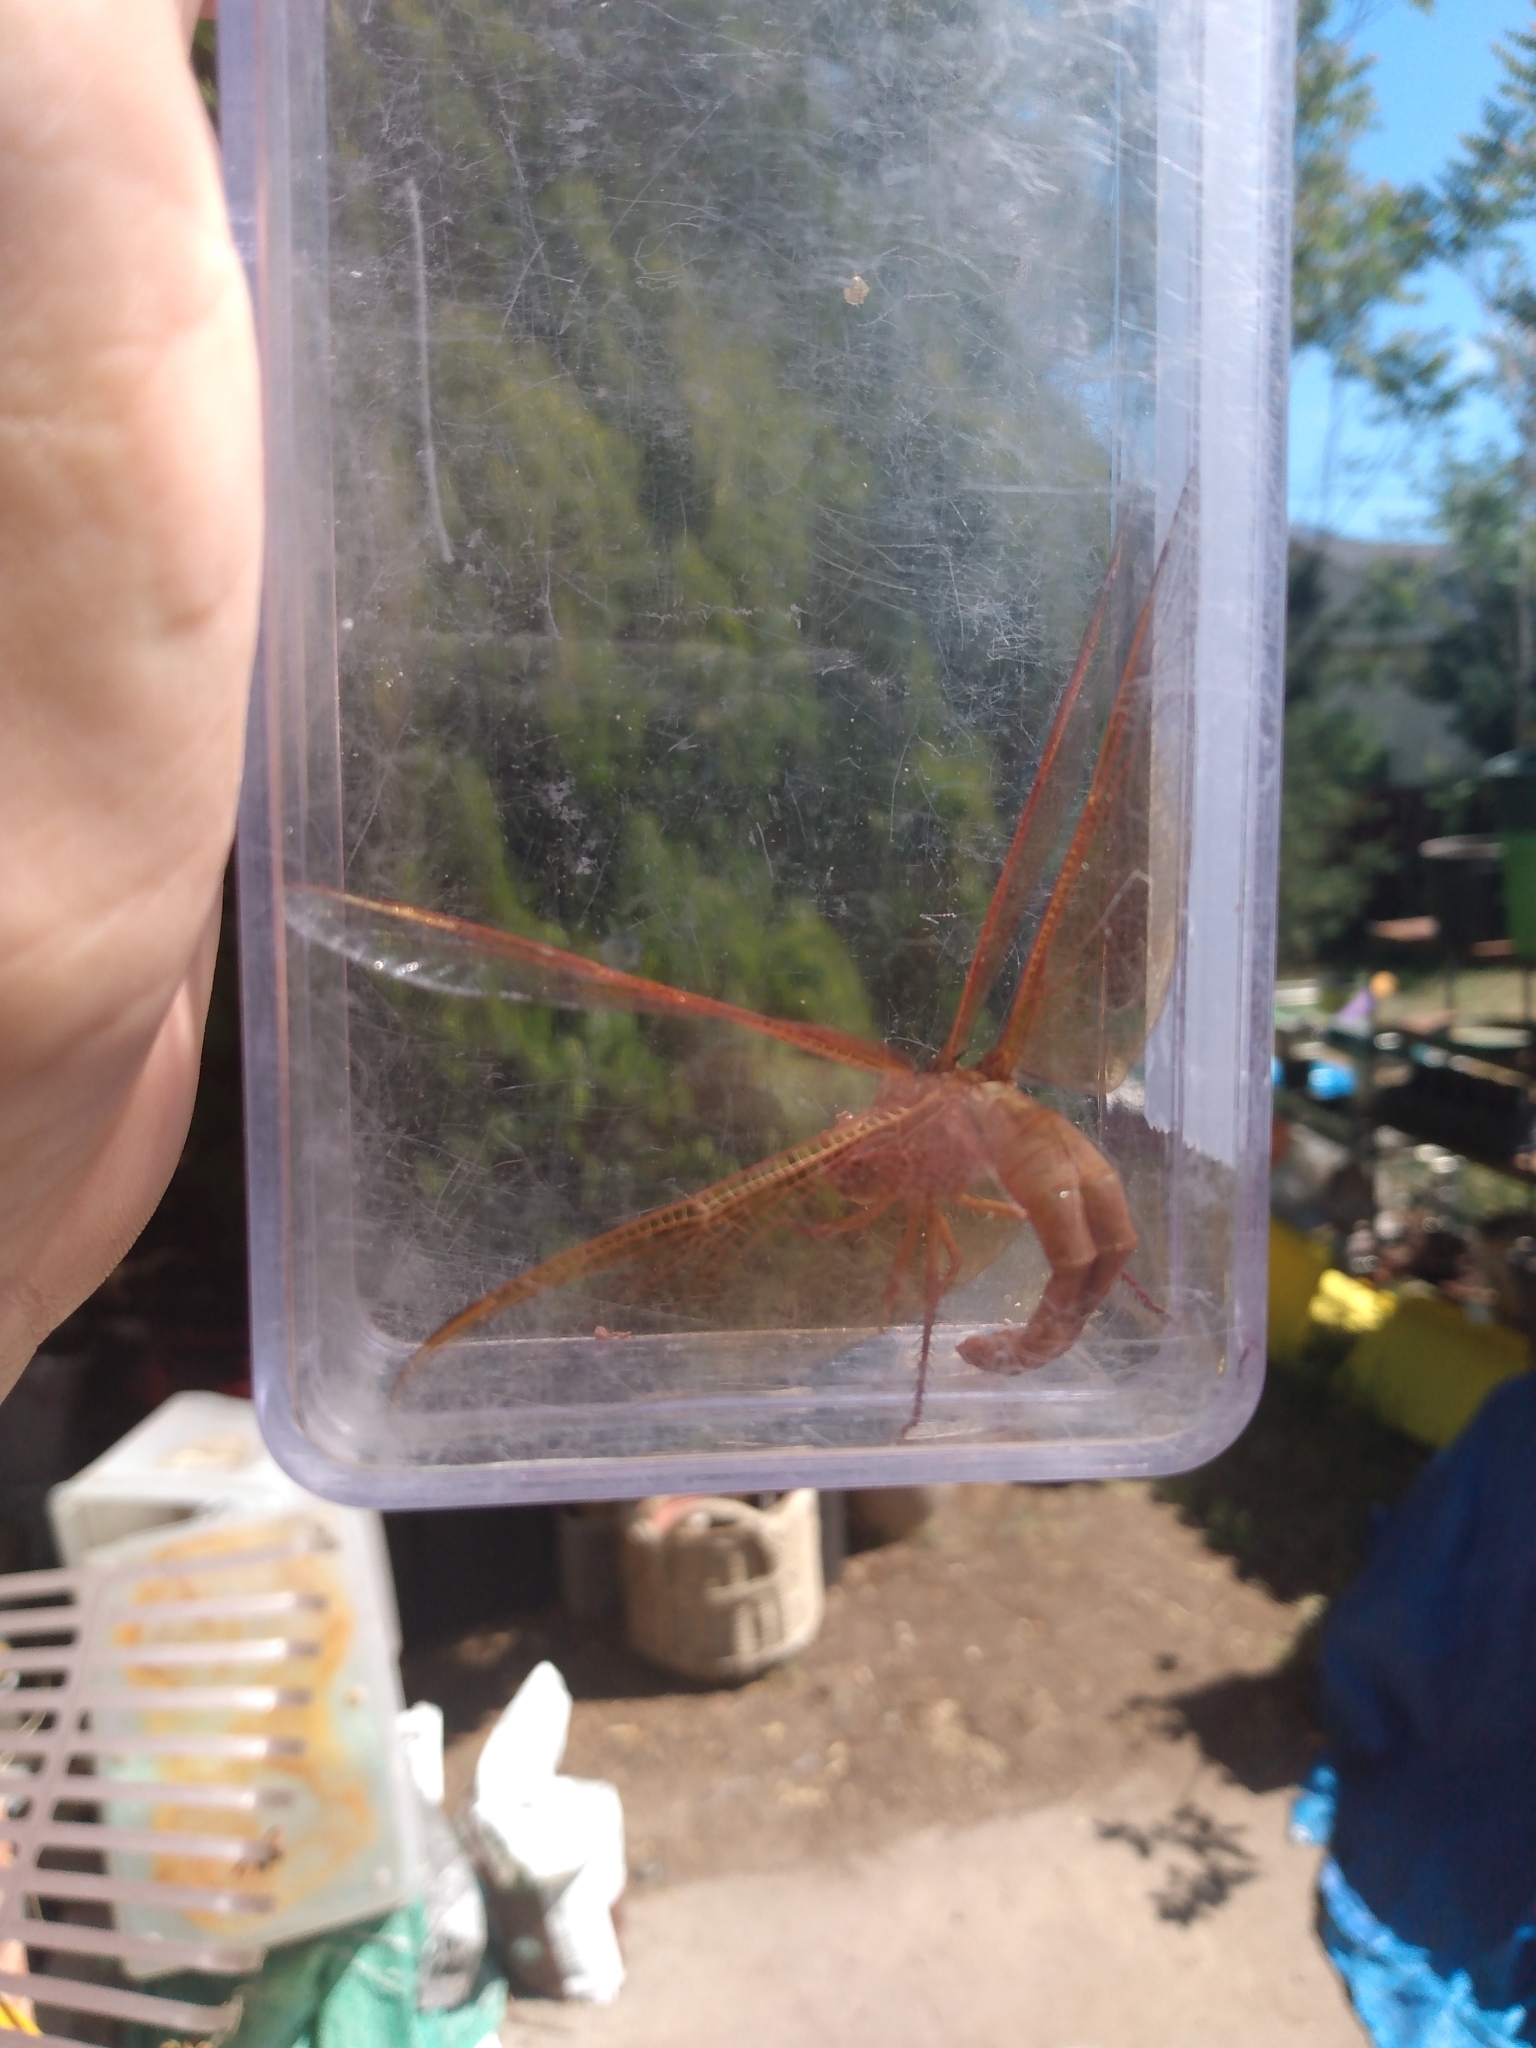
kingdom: Animalia
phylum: Arthropoda
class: Insecta
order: Odonata
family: Libellulidae
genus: Libellula
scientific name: Libellula saturata
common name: Flame skimmer
